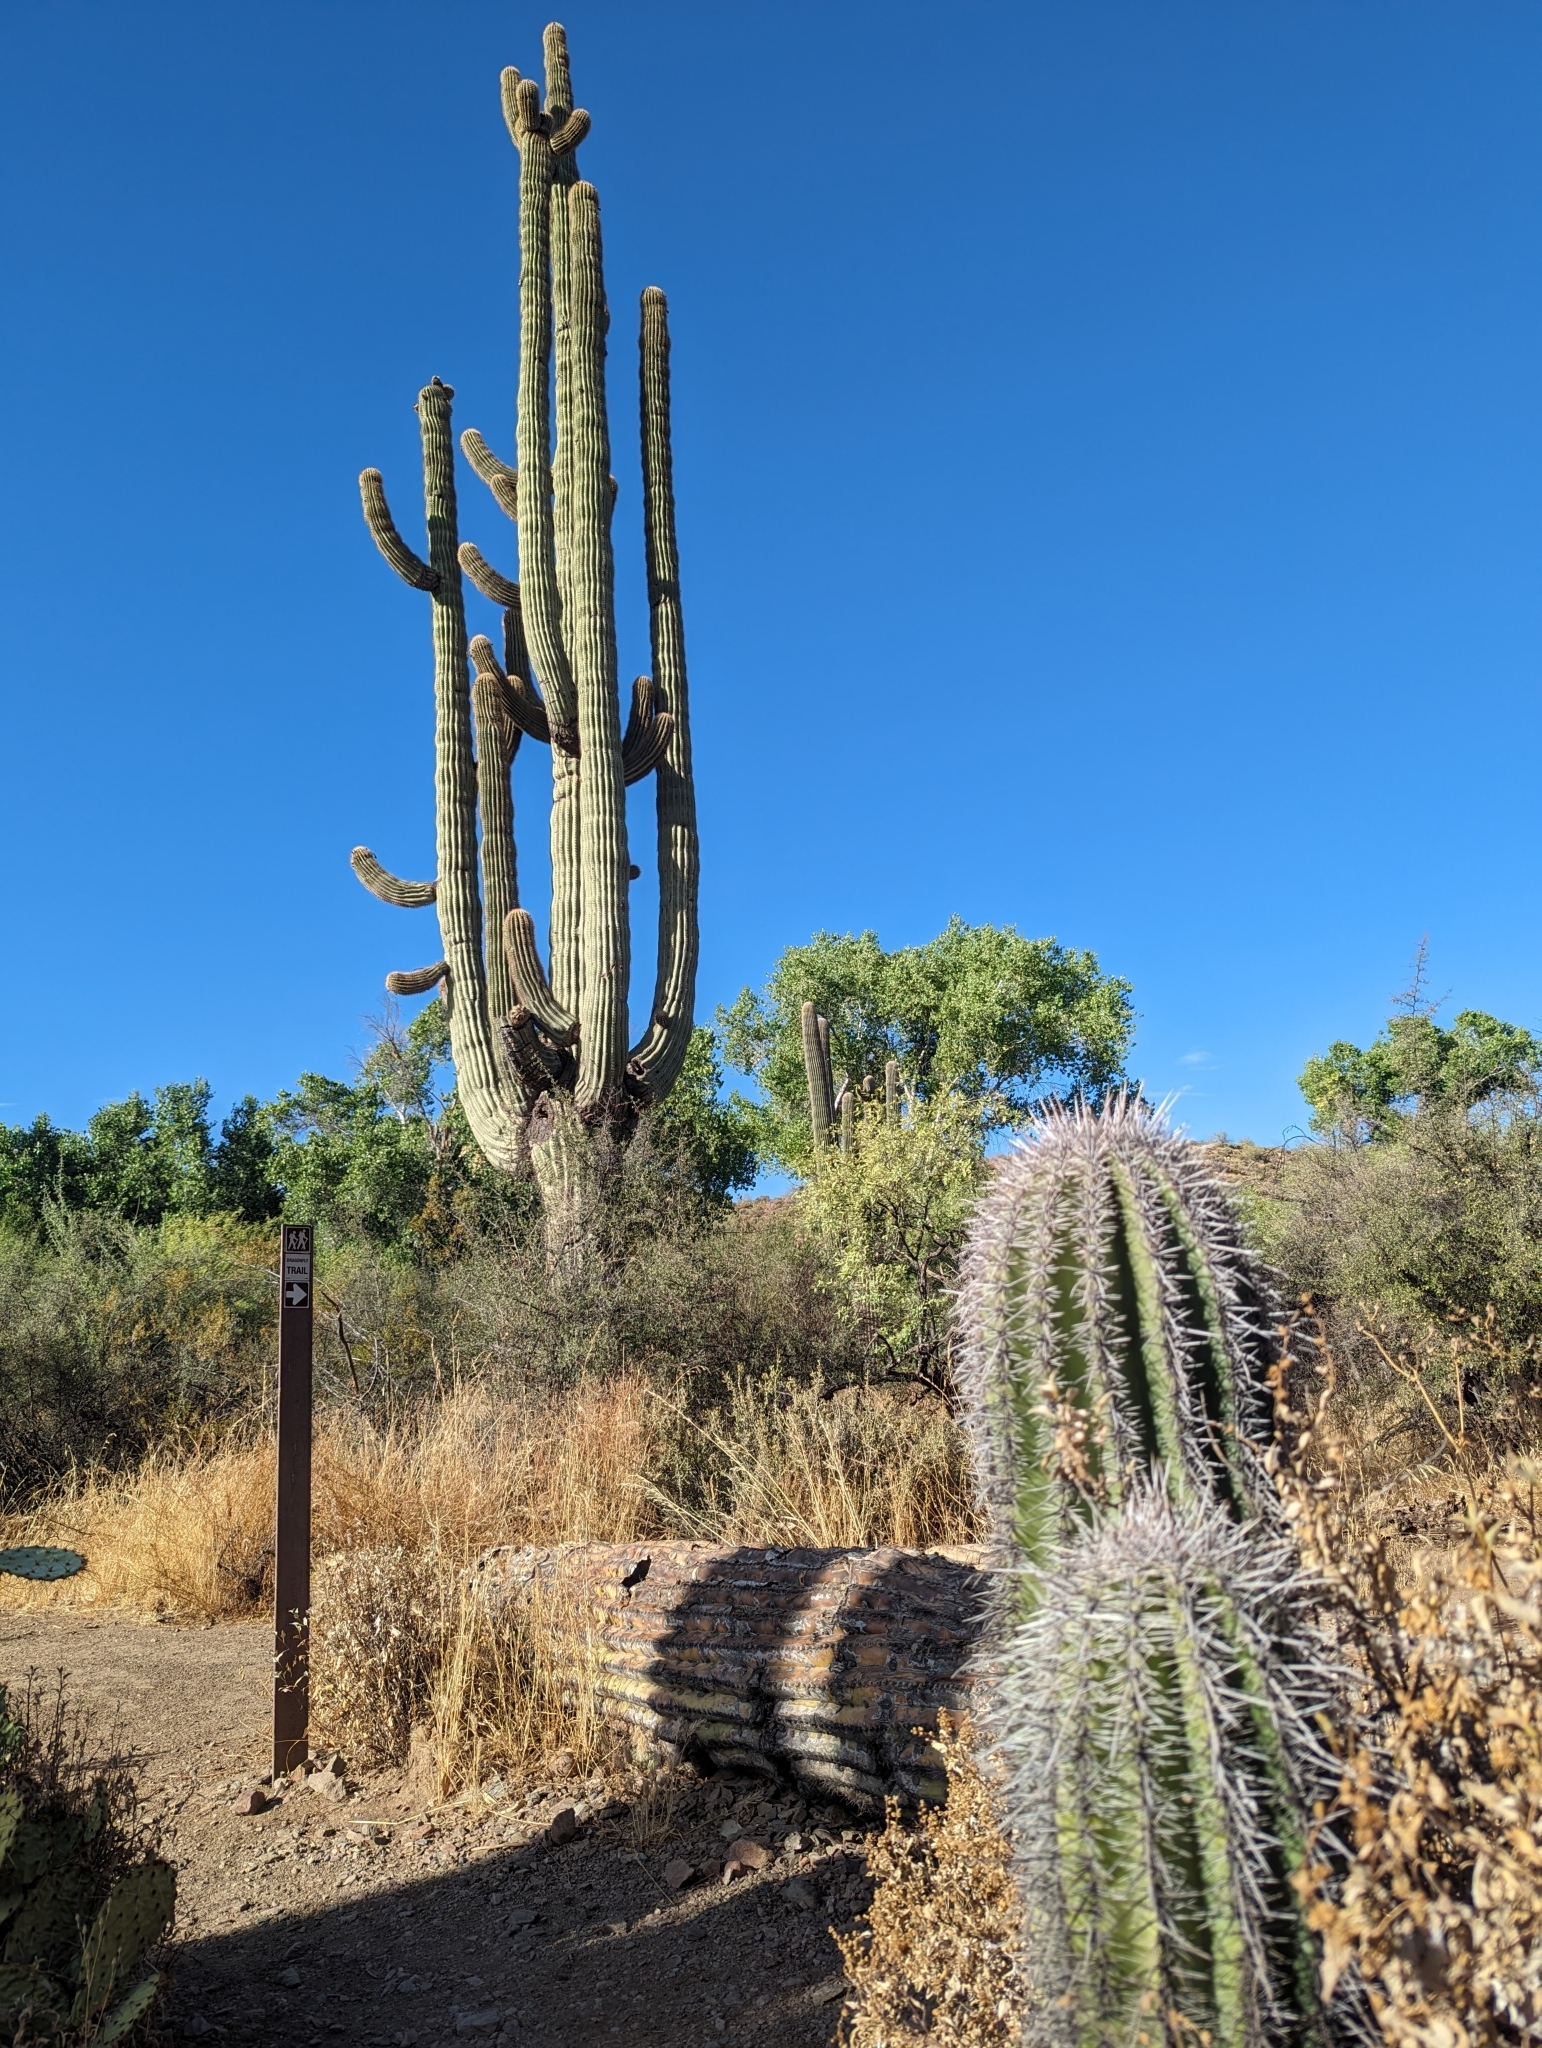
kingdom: Plantae
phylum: Tracheophyta
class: Magnoliopsida
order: Caryophyllales
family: Cactaceae
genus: Carnegiea
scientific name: Carnegiea gigantea
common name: Saguaro
